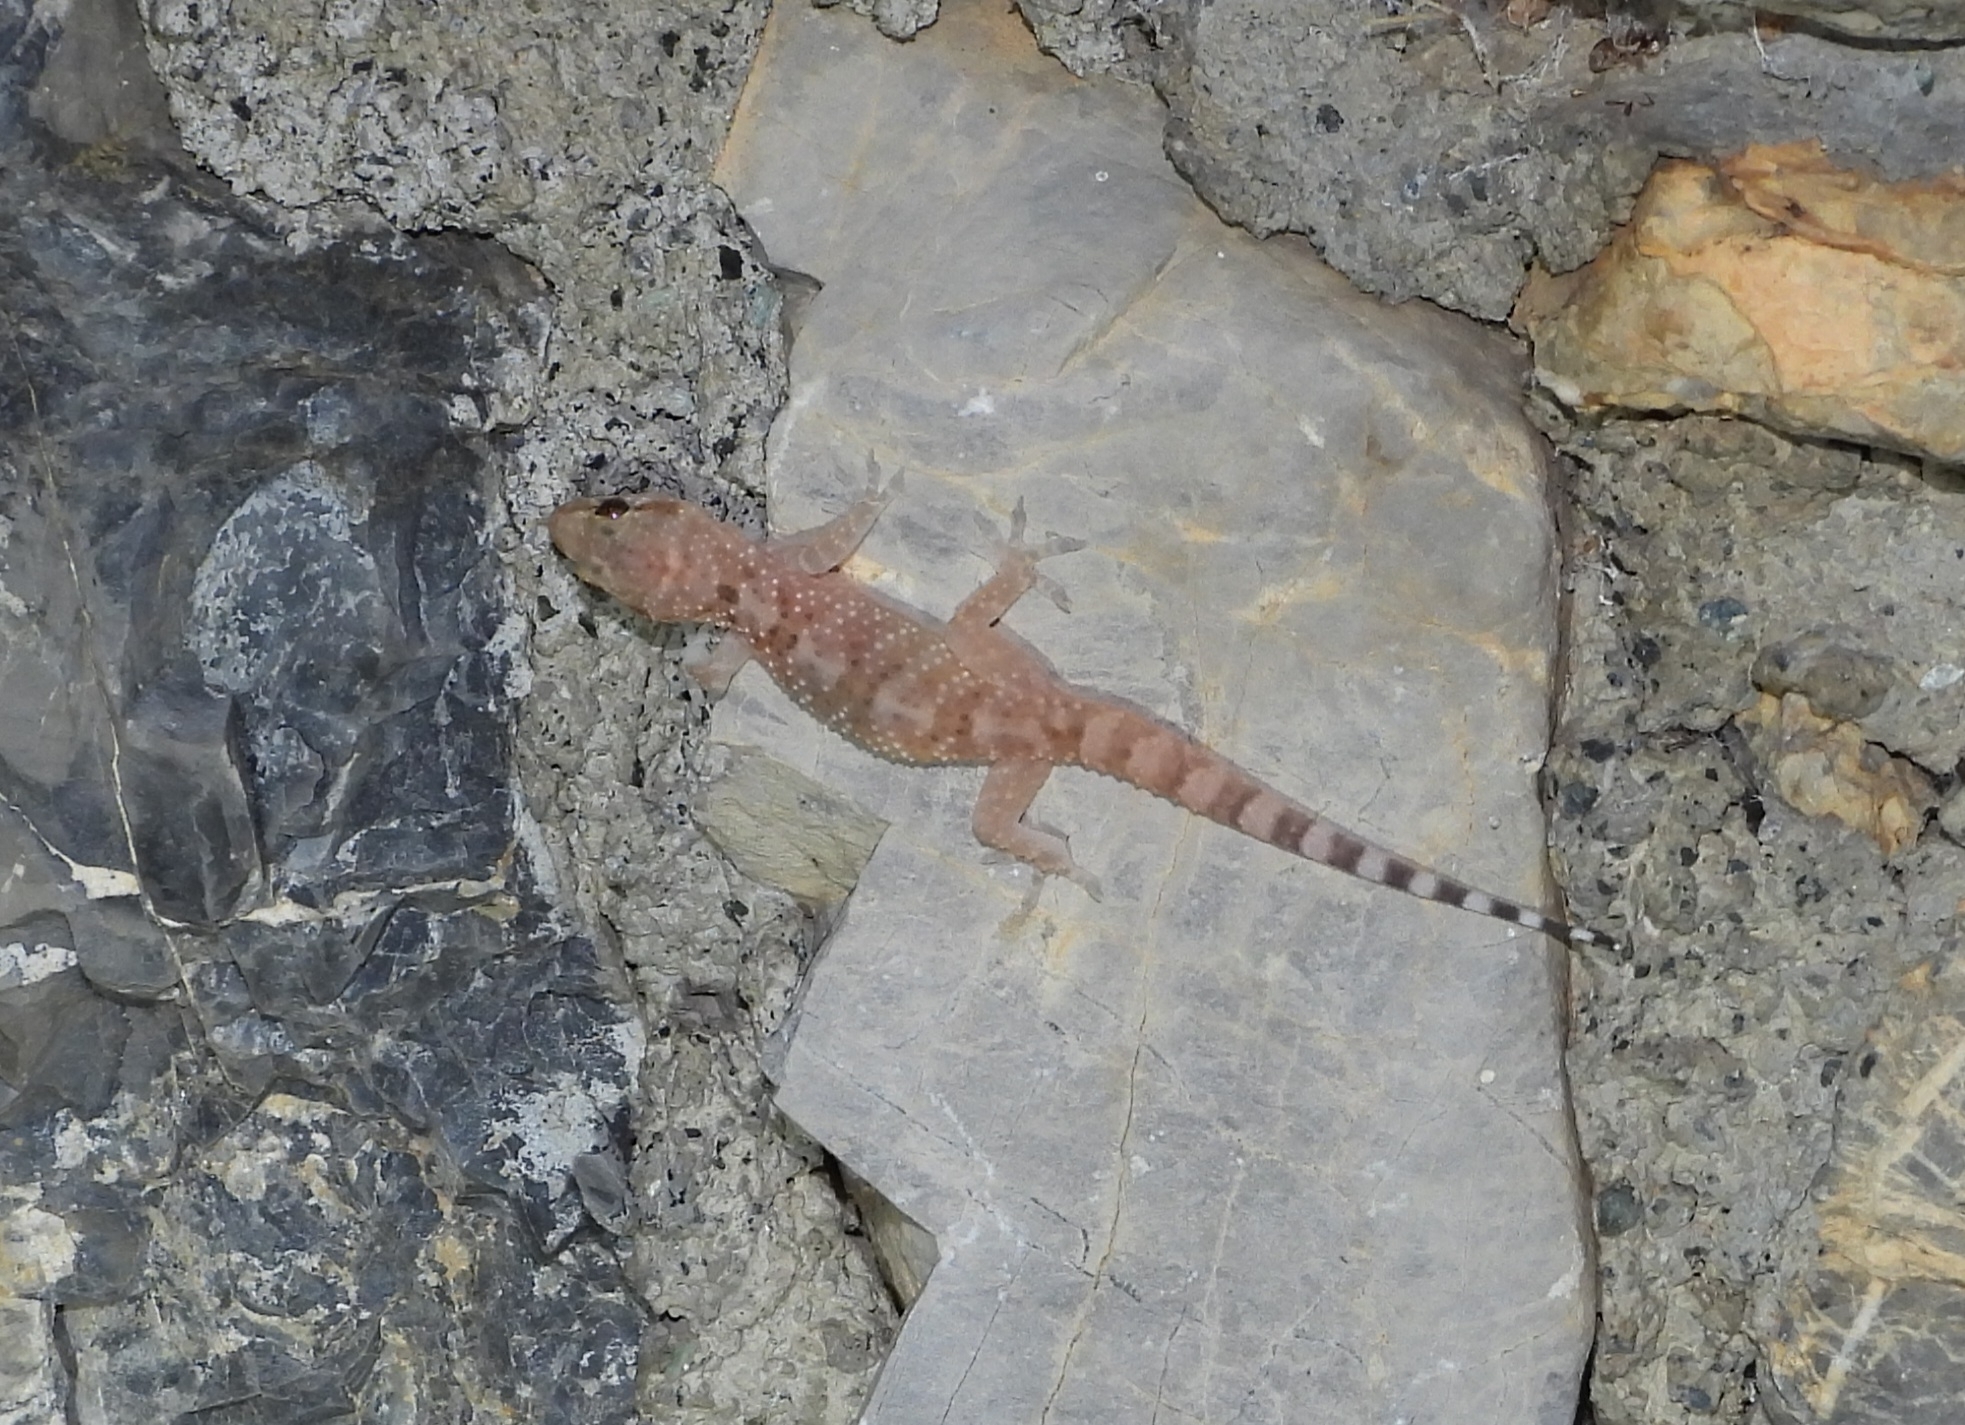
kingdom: Animalia
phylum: Chordata
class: Squamata
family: Gekkonidae
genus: Hemidactylus
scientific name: Hemidactylus turcicus
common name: Turkish gecko
